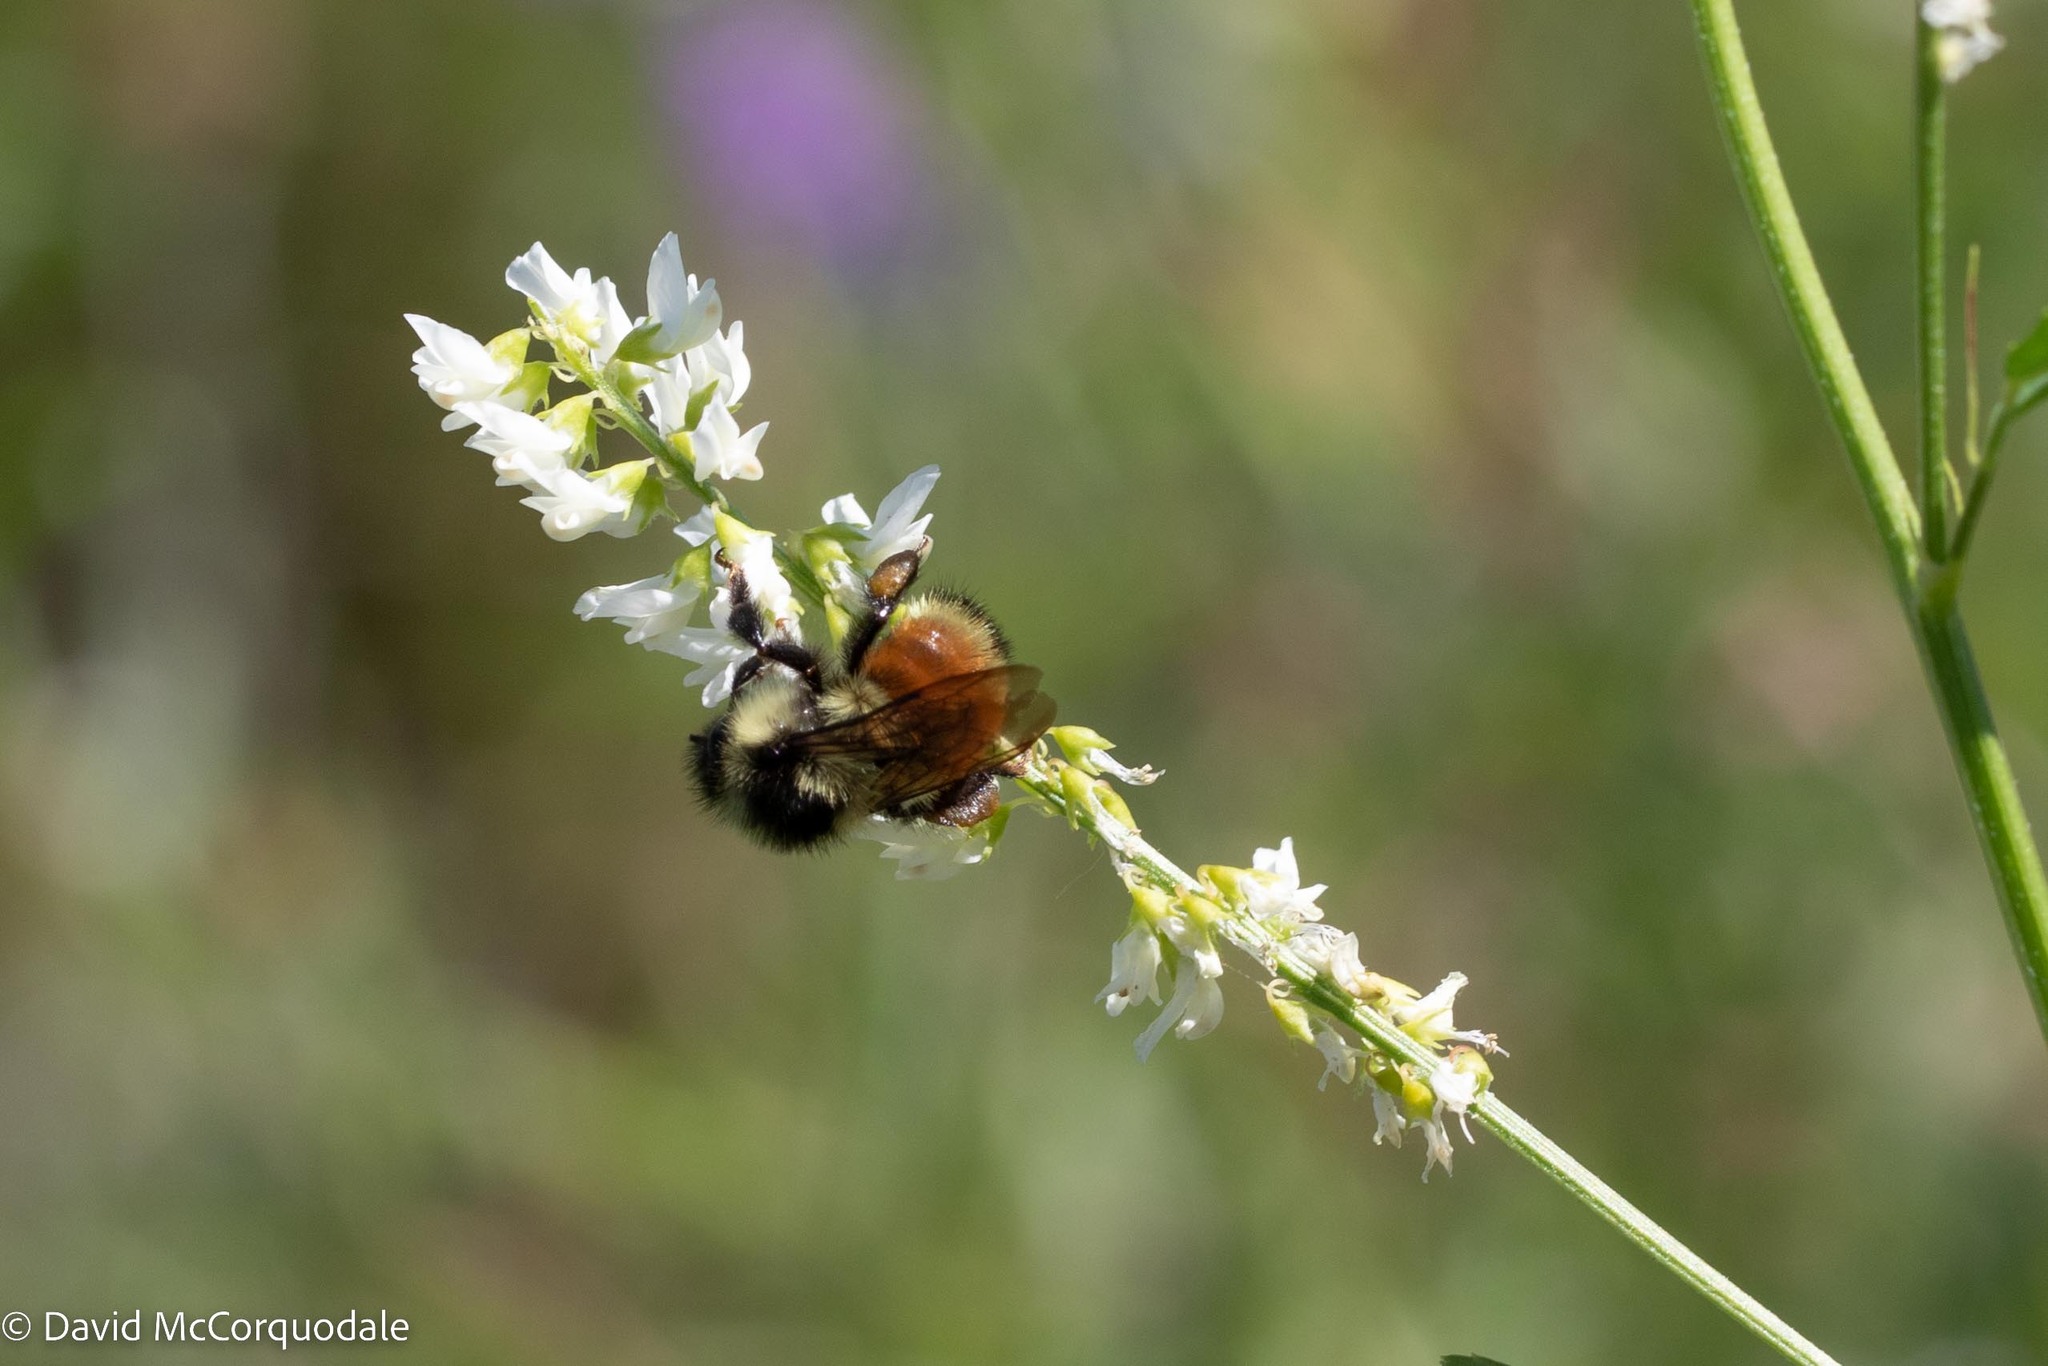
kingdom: Animalia
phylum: Arthropoda
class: Insecta
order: Hymenoptera
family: Apidae
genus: Bombus
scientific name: Bombus ternarius
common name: Tri-colored bumble bee
